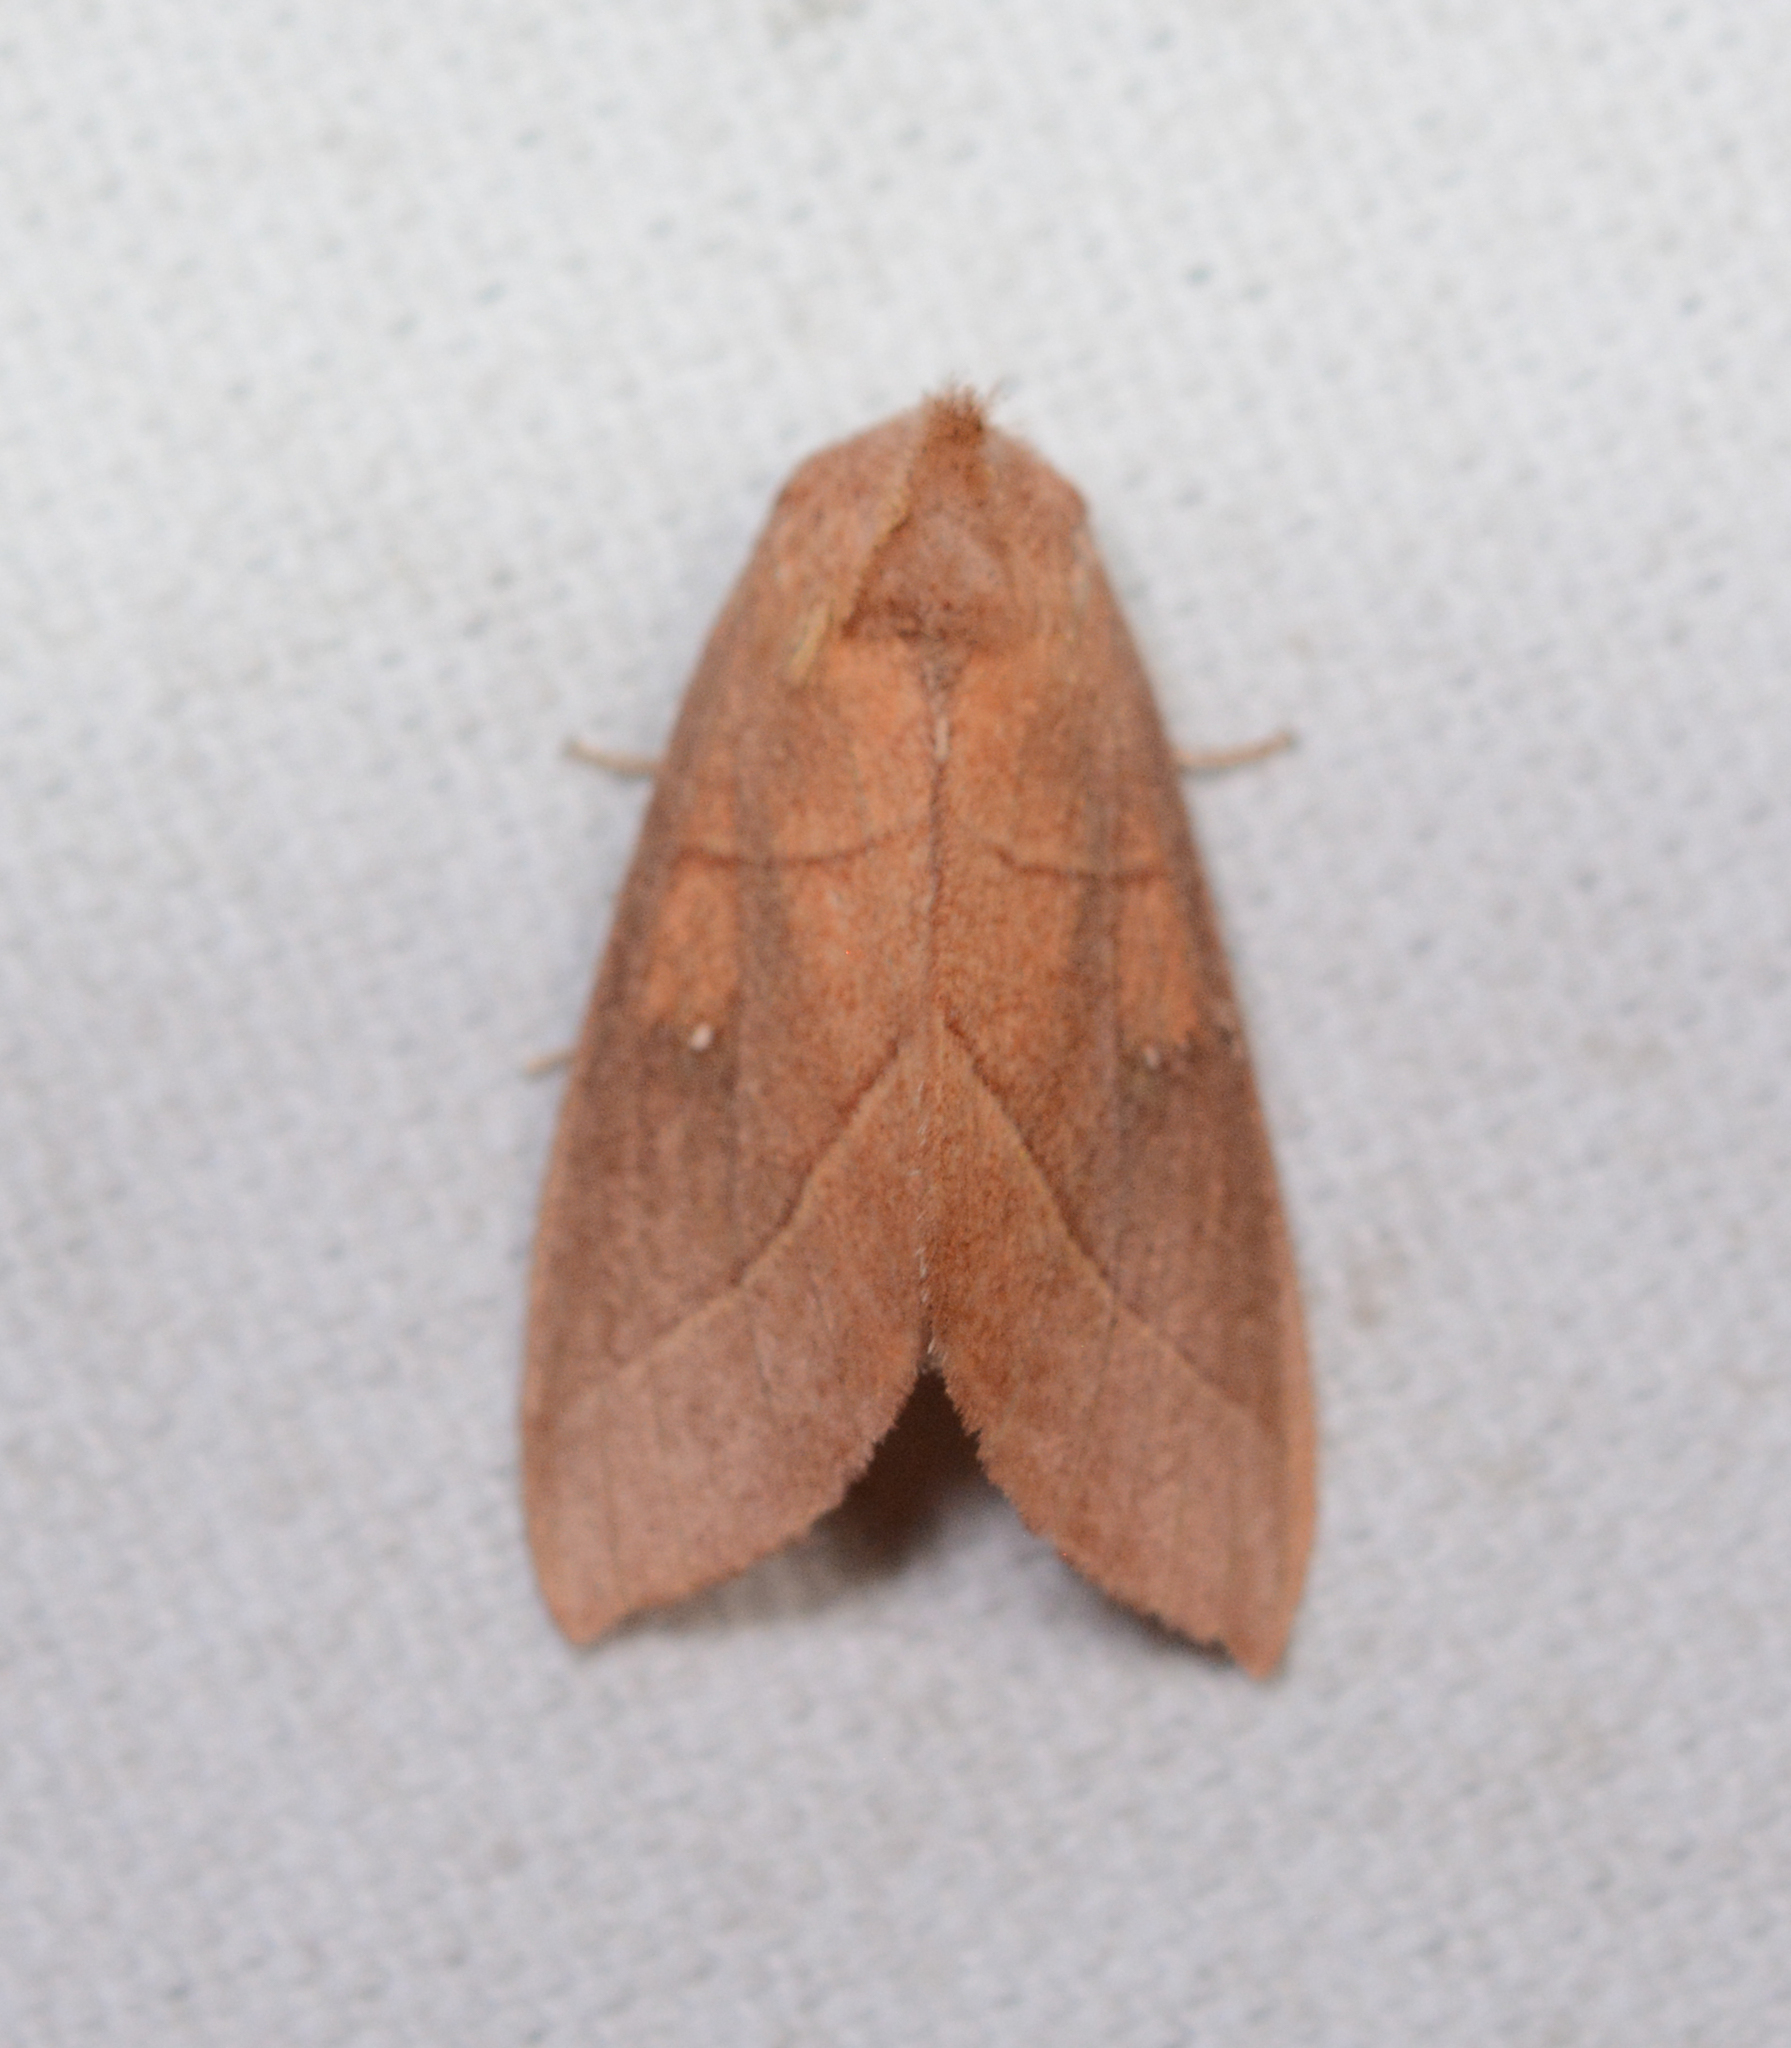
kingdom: Animalia
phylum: Arthropoda
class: Insecta
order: Lepidoptera
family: Notodontidae
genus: Nadata
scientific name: Nadata gibbosa
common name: White-dotted prominent
